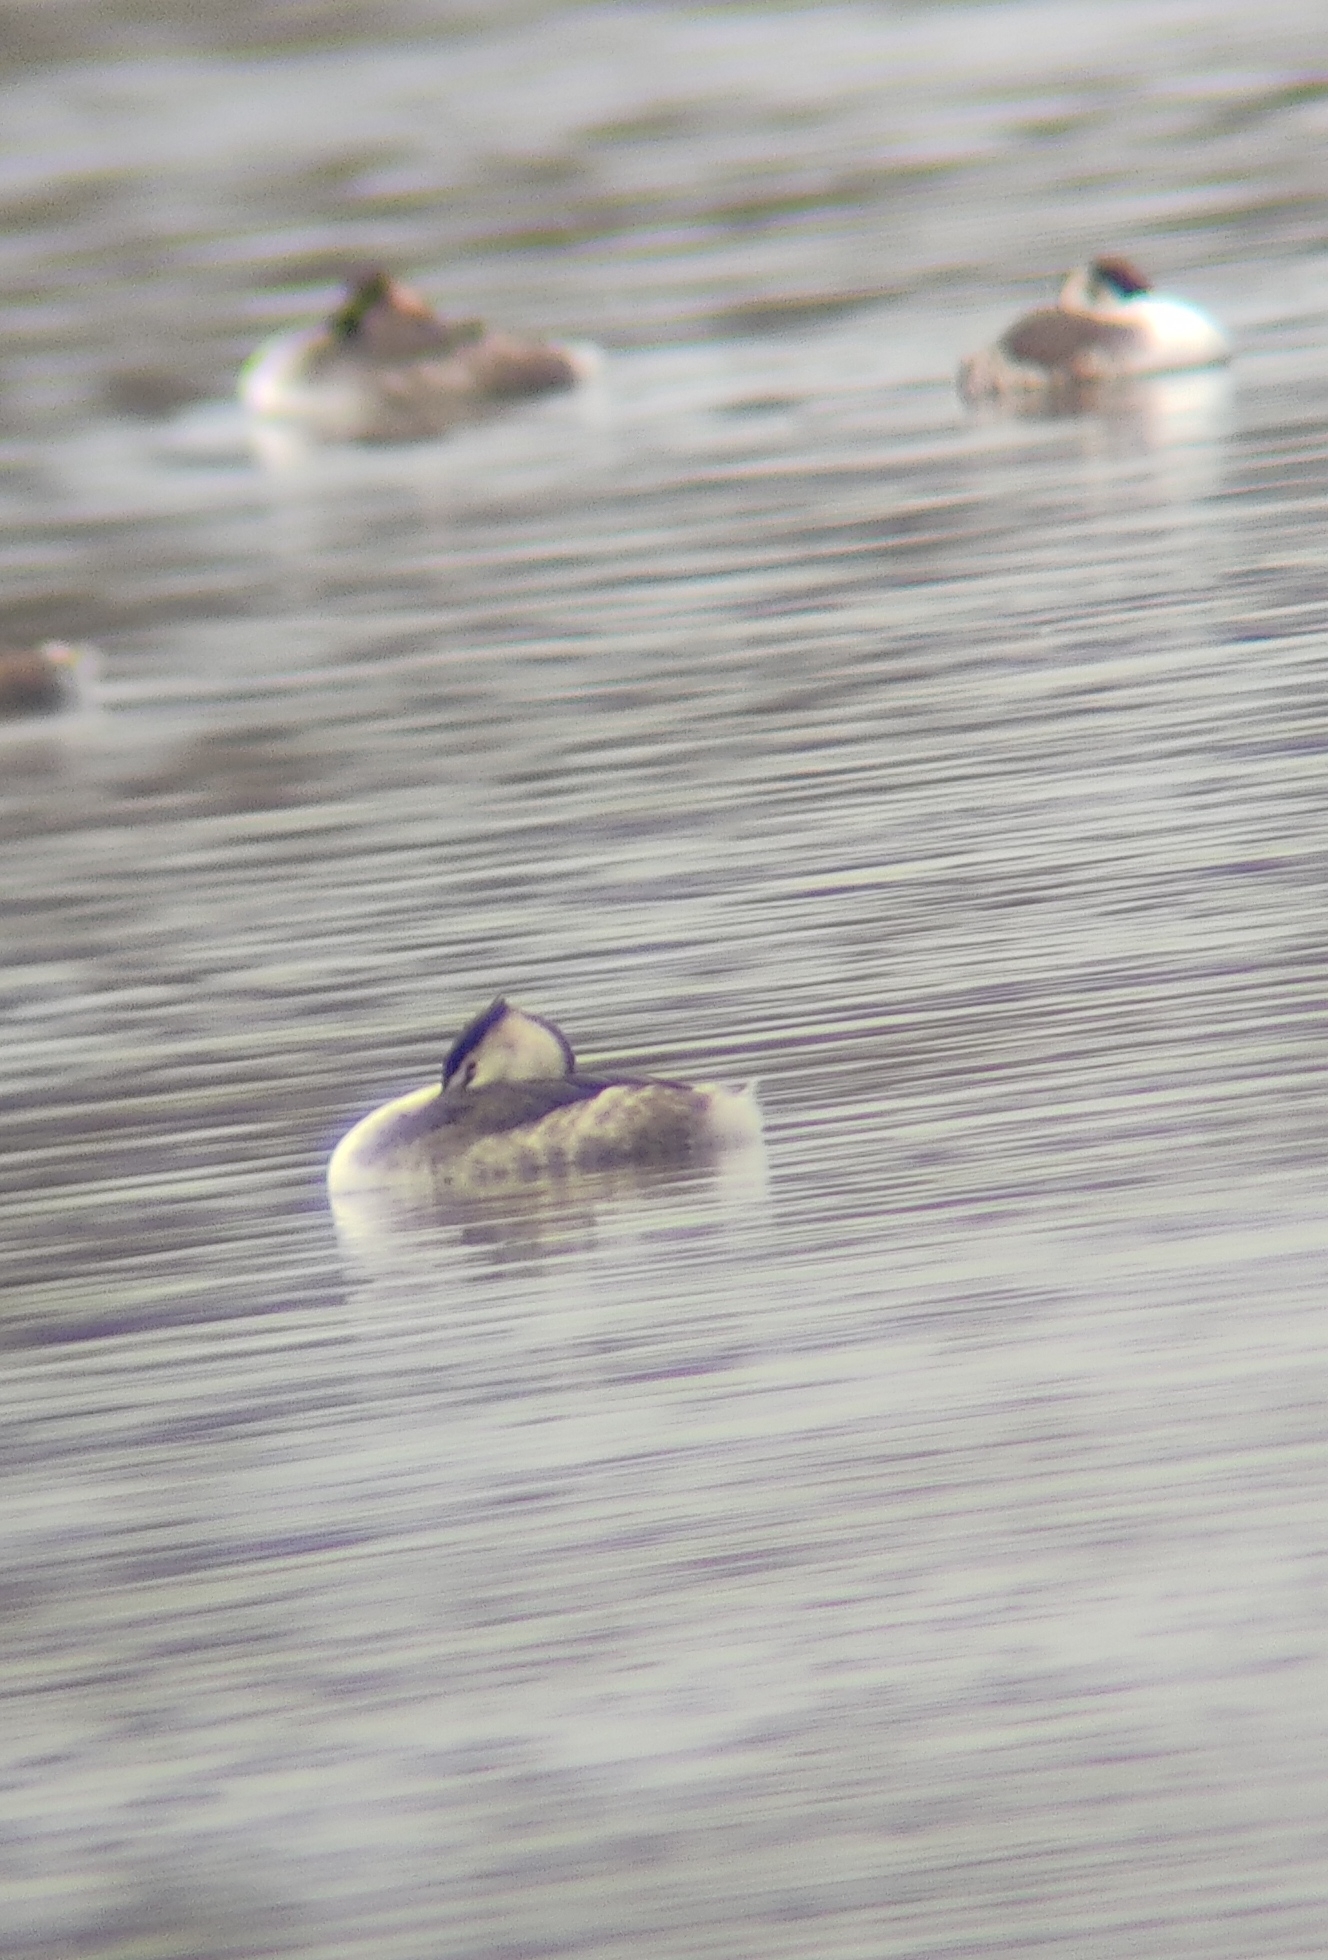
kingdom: Animalia
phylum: Chordata
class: Aves
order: Podicipediformes
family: Podicipedidae
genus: Podiceps
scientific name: Podiceps cristatus
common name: Great crested grebe
